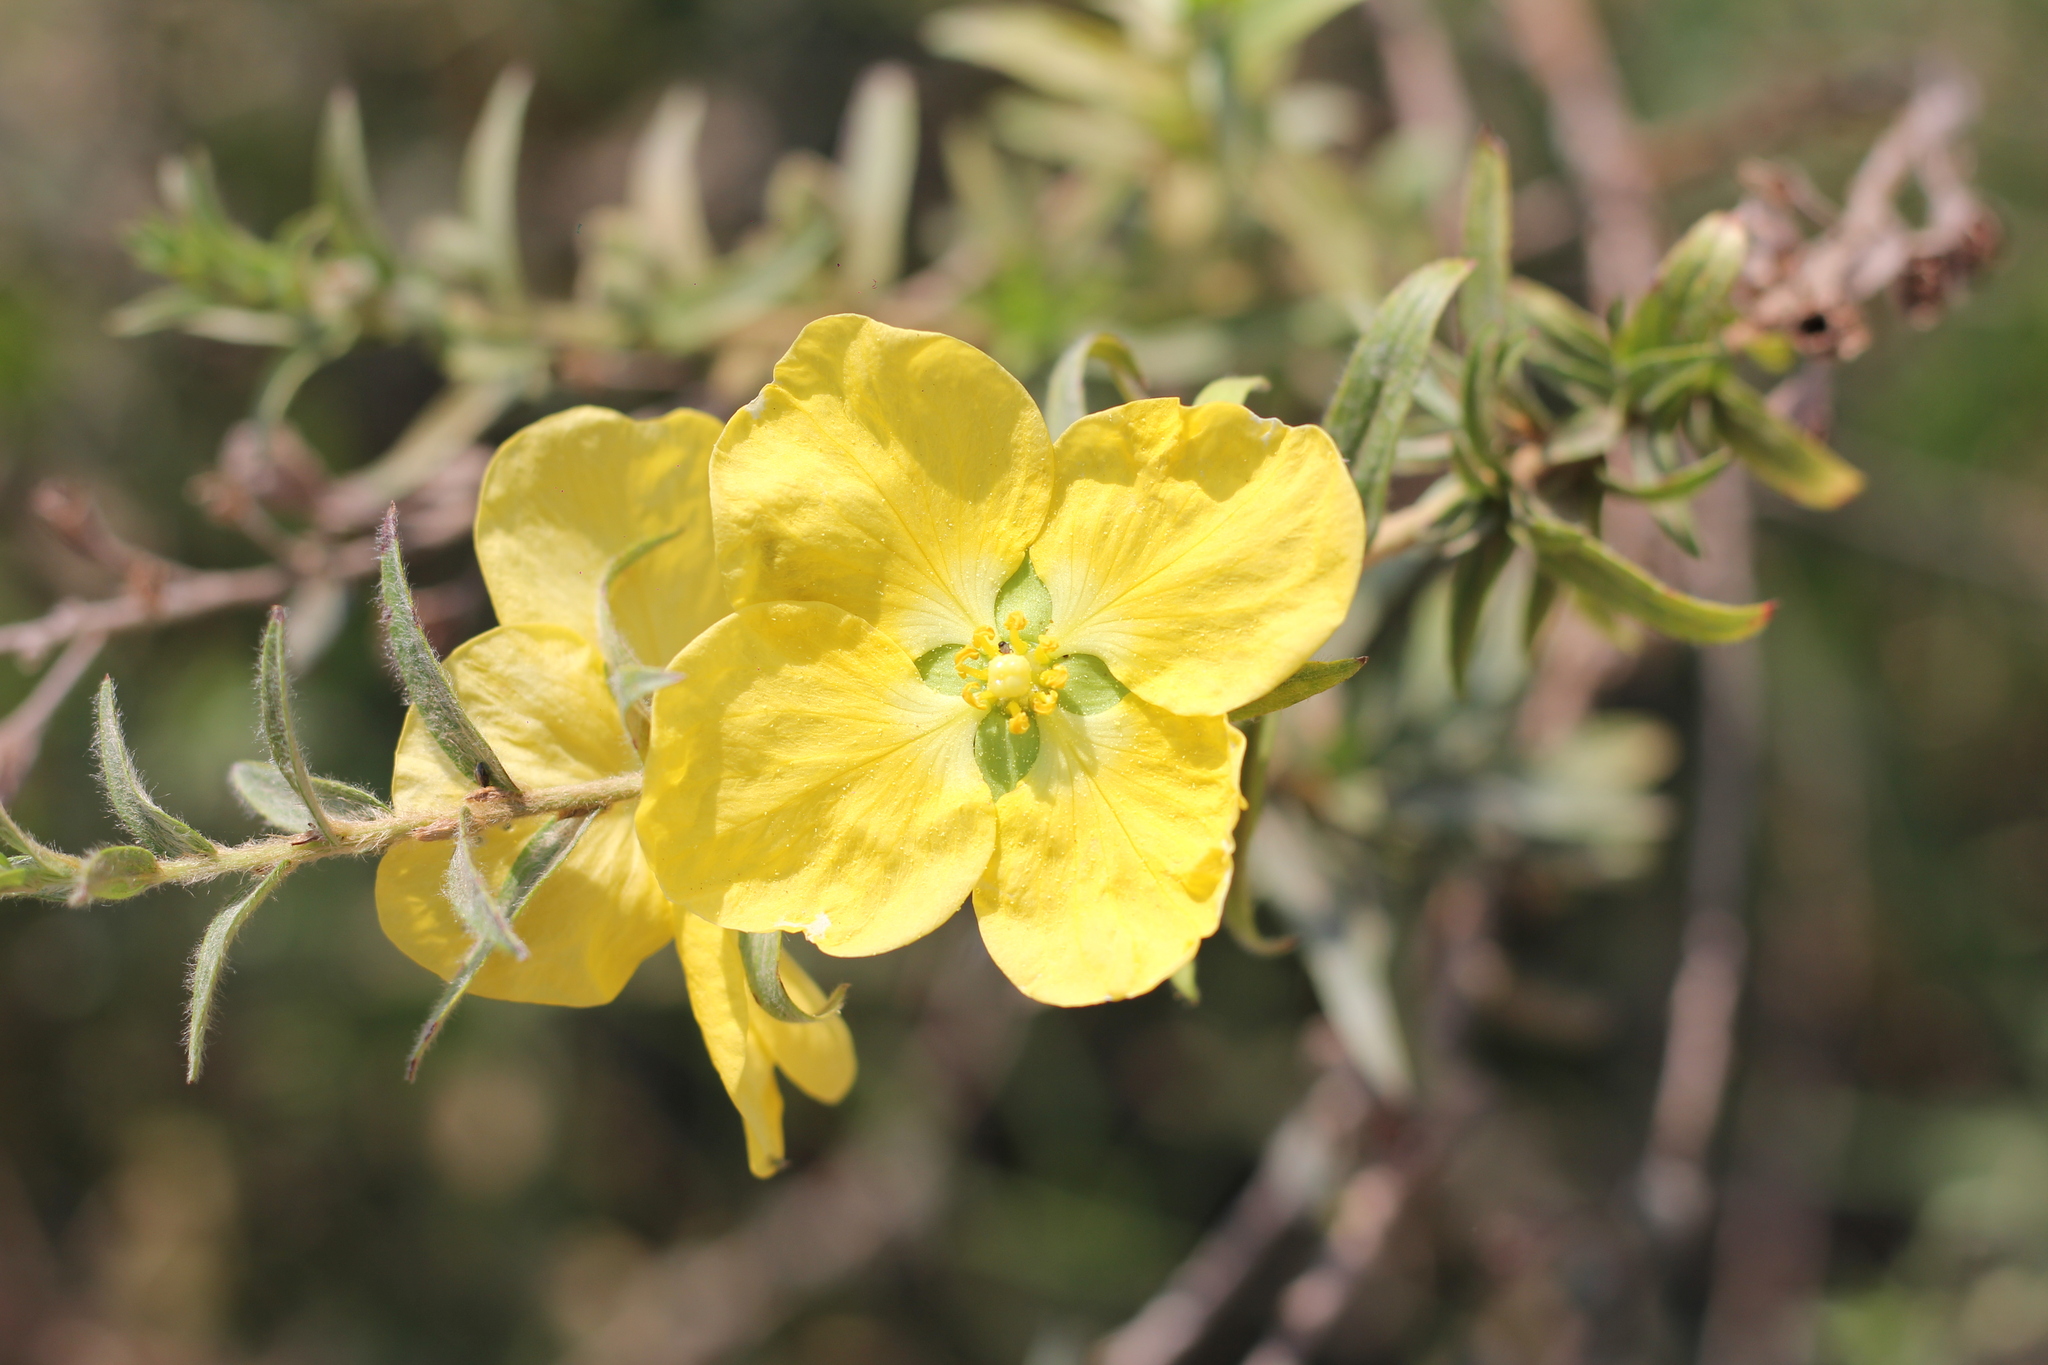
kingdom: Plantae
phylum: Tracheophyta
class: Magnoliopsida
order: Myrtales
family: Onagraceae
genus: Ludwigia
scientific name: Ludwigia sericea
